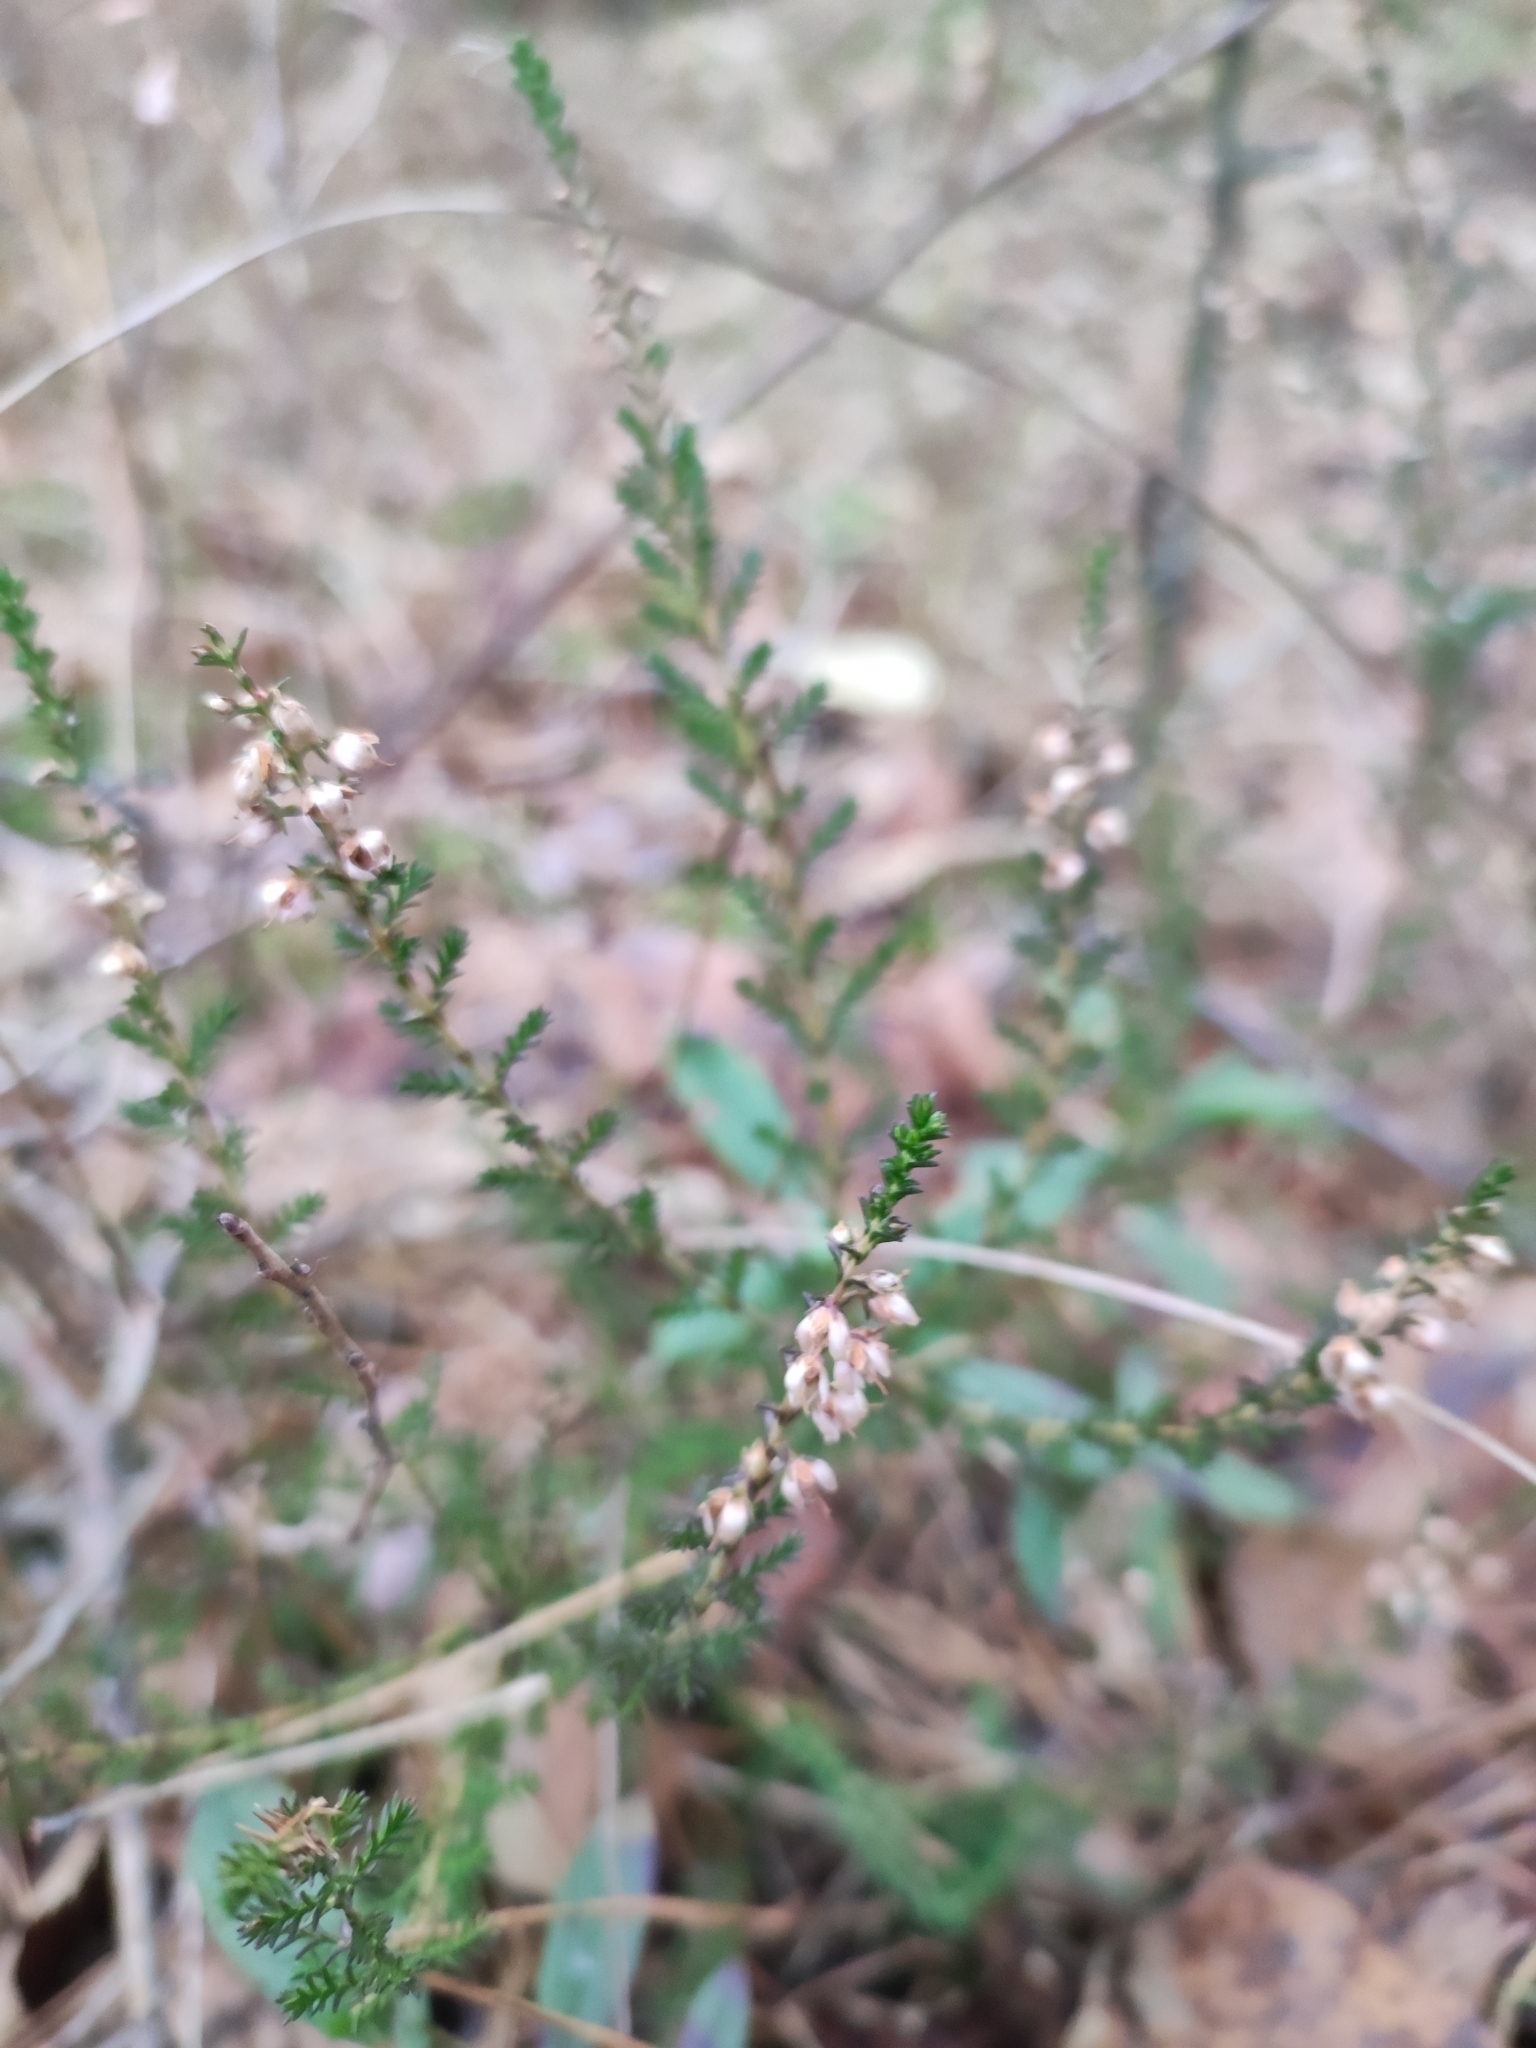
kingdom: Plantae
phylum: Tracheophyta
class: Magnoliopsida
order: Ericales
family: Ericaceae
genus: Calluna
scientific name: Calluna vulgaris
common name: Heather
